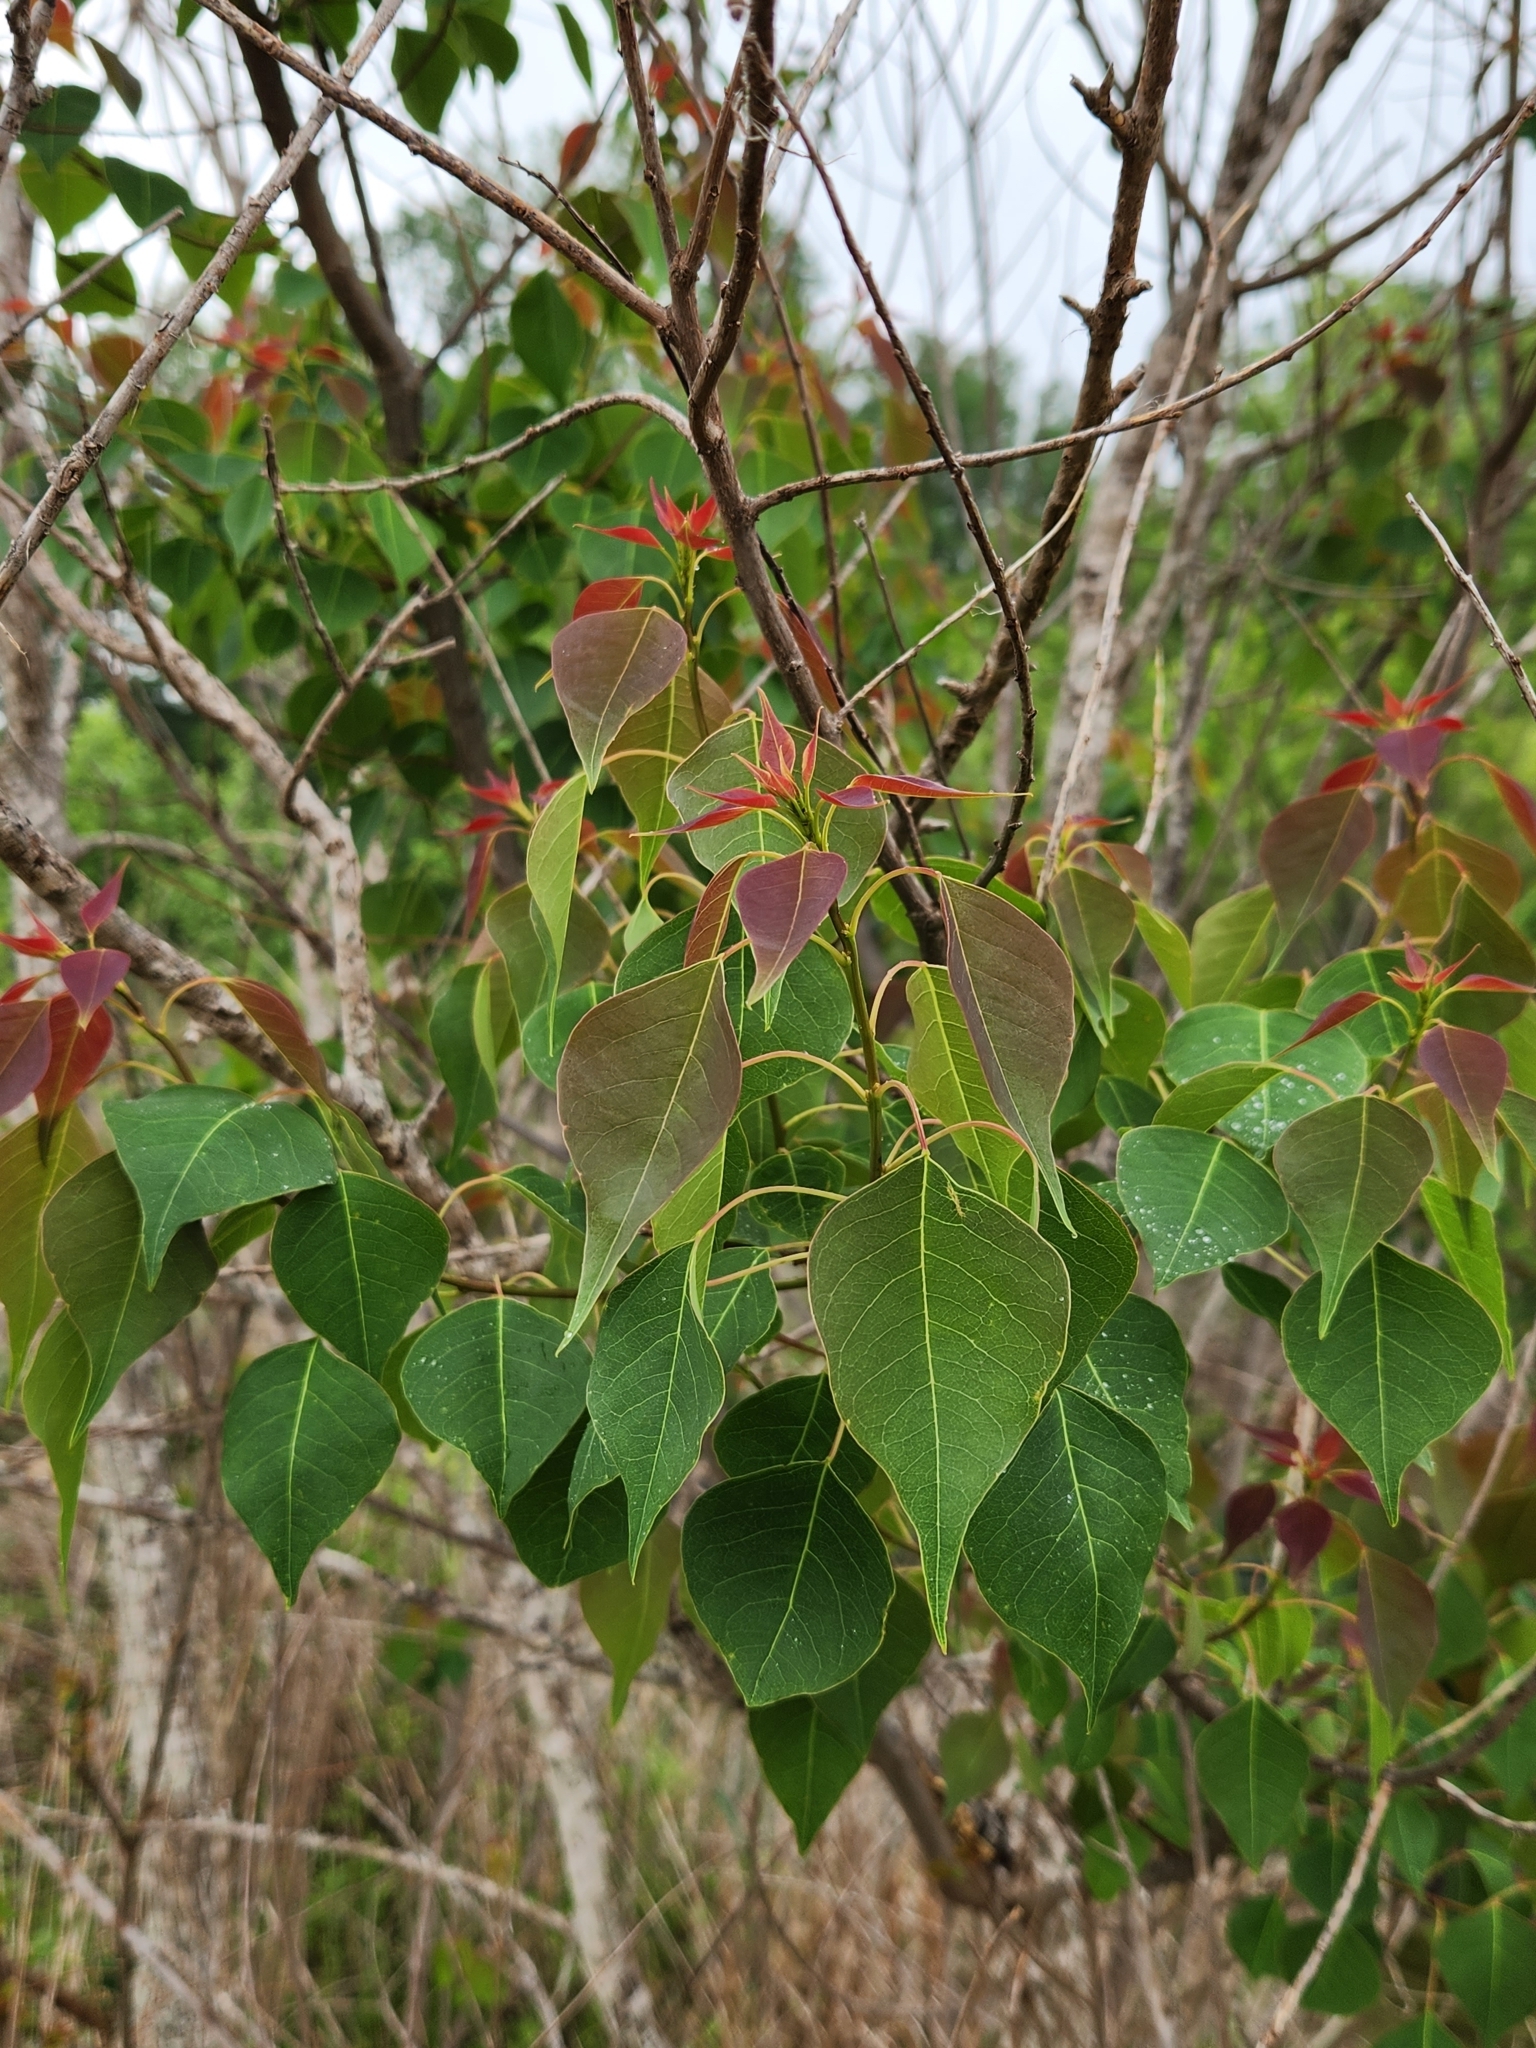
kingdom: Plantae
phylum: Tracheophyta
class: Magnoliopsida
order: Malpighiales
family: Euphorbiaceae
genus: Triadica
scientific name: Triadica sebifera
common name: Chinese tallow
